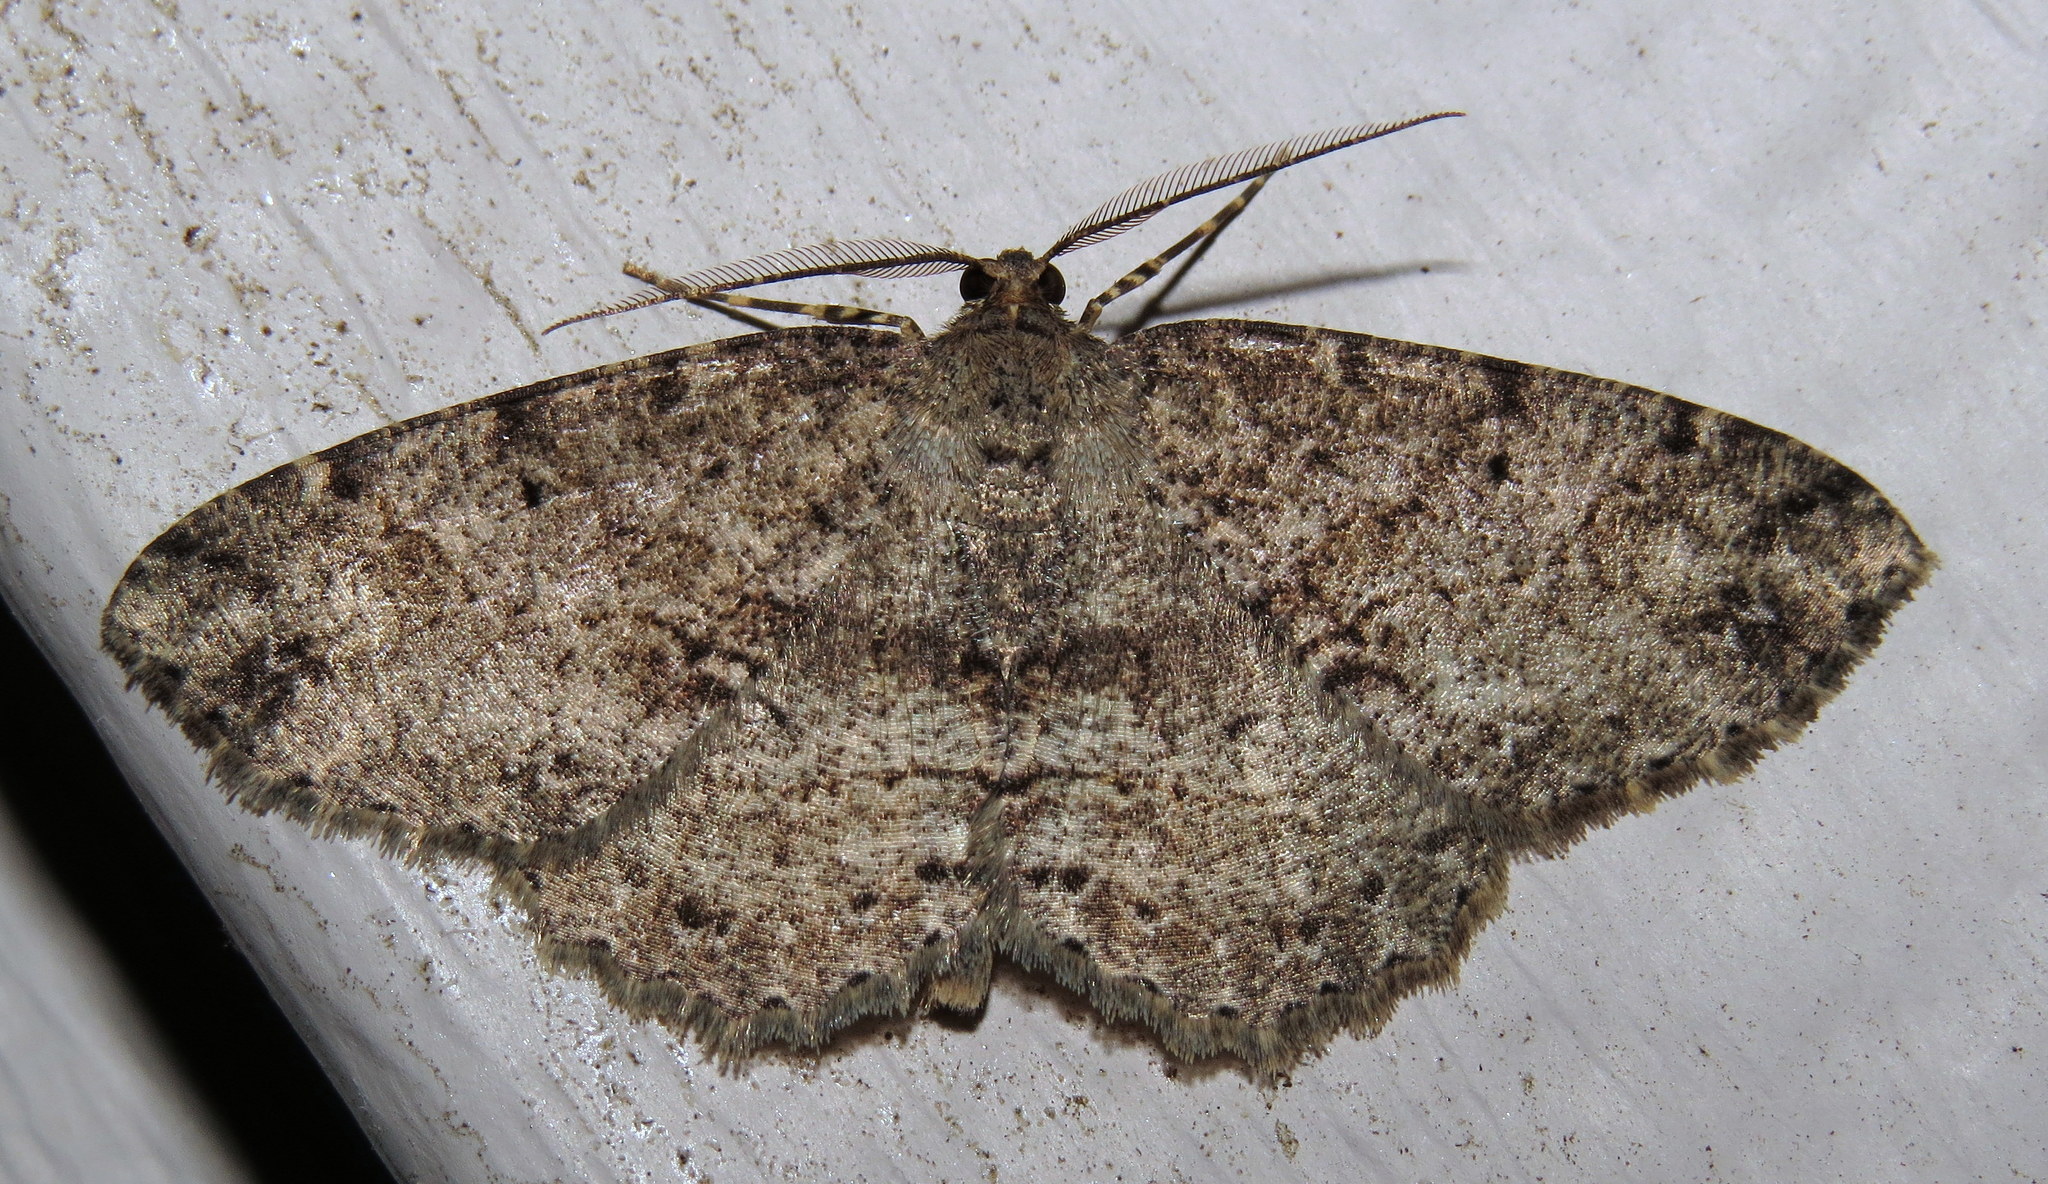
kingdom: Animalia
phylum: Arthropoda
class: Insecta
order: Lepidoptera
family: Geometridae
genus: Melanolophia
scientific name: Melanolophia canadaria
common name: Canadian melanolophia
